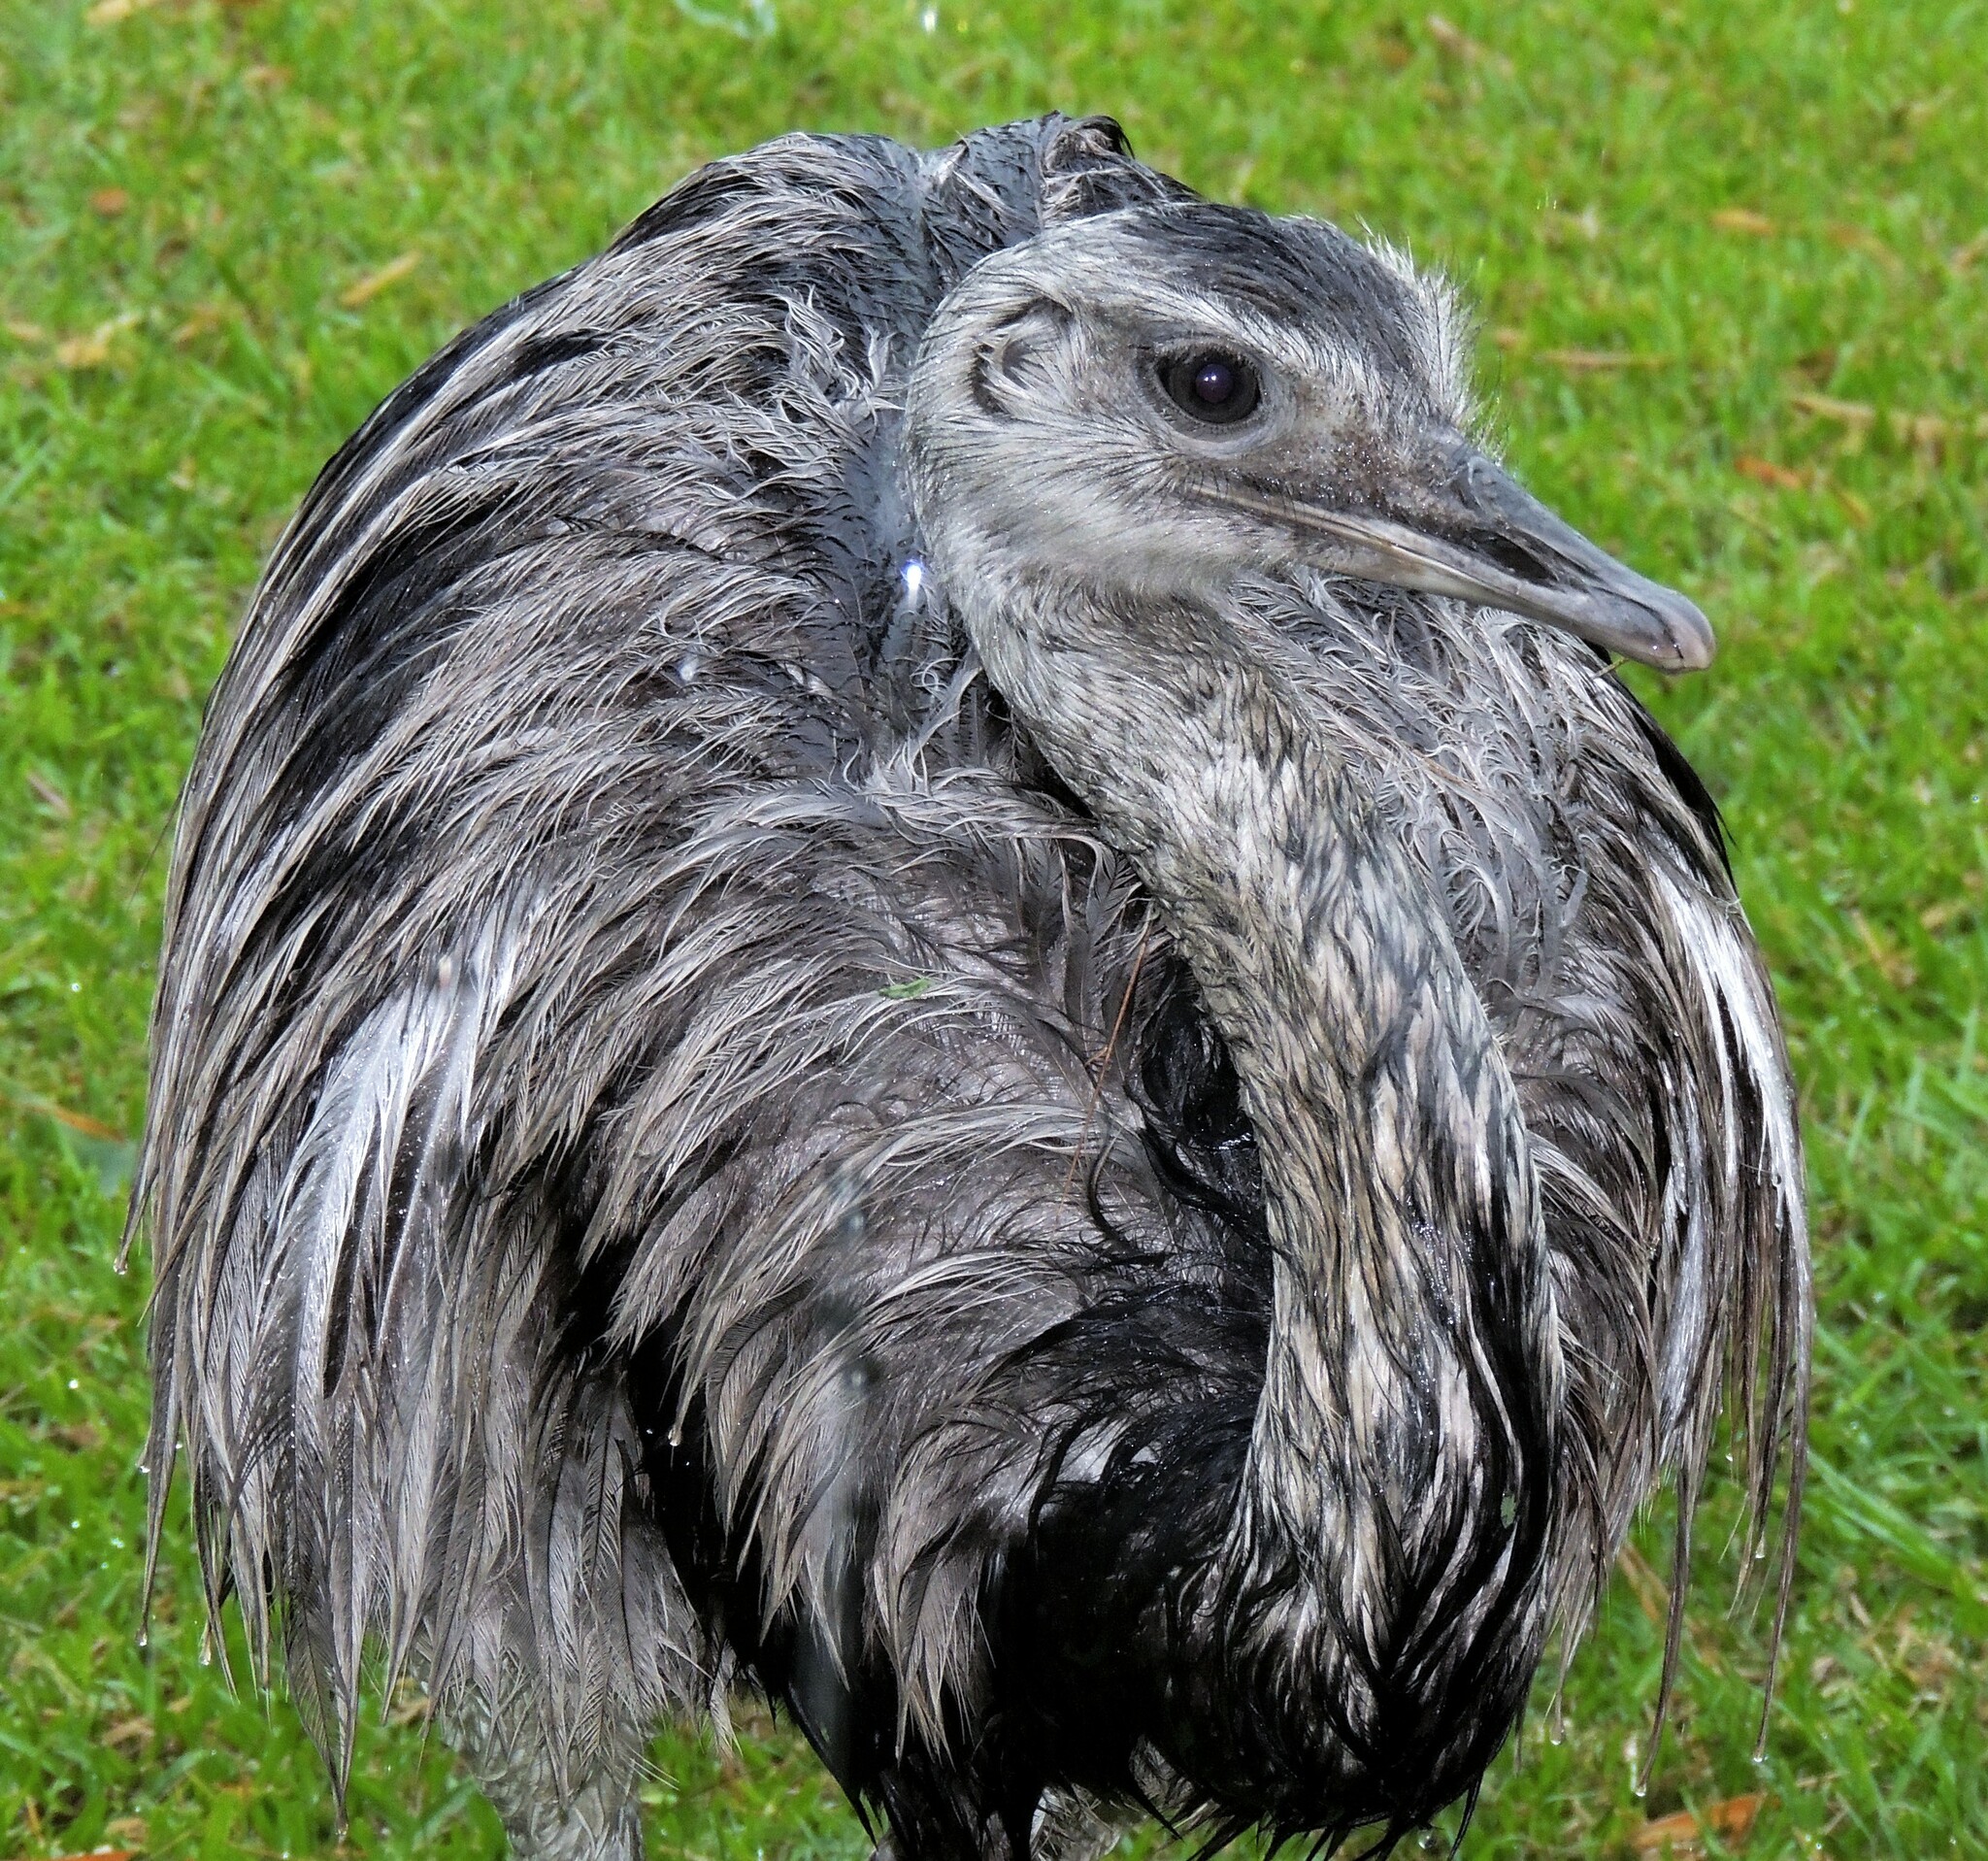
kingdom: Animalia
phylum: Chordata
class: Aves
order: Rheiformes
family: Rheidae
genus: Rhea
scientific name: Rhea americana
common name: Greater rhea
